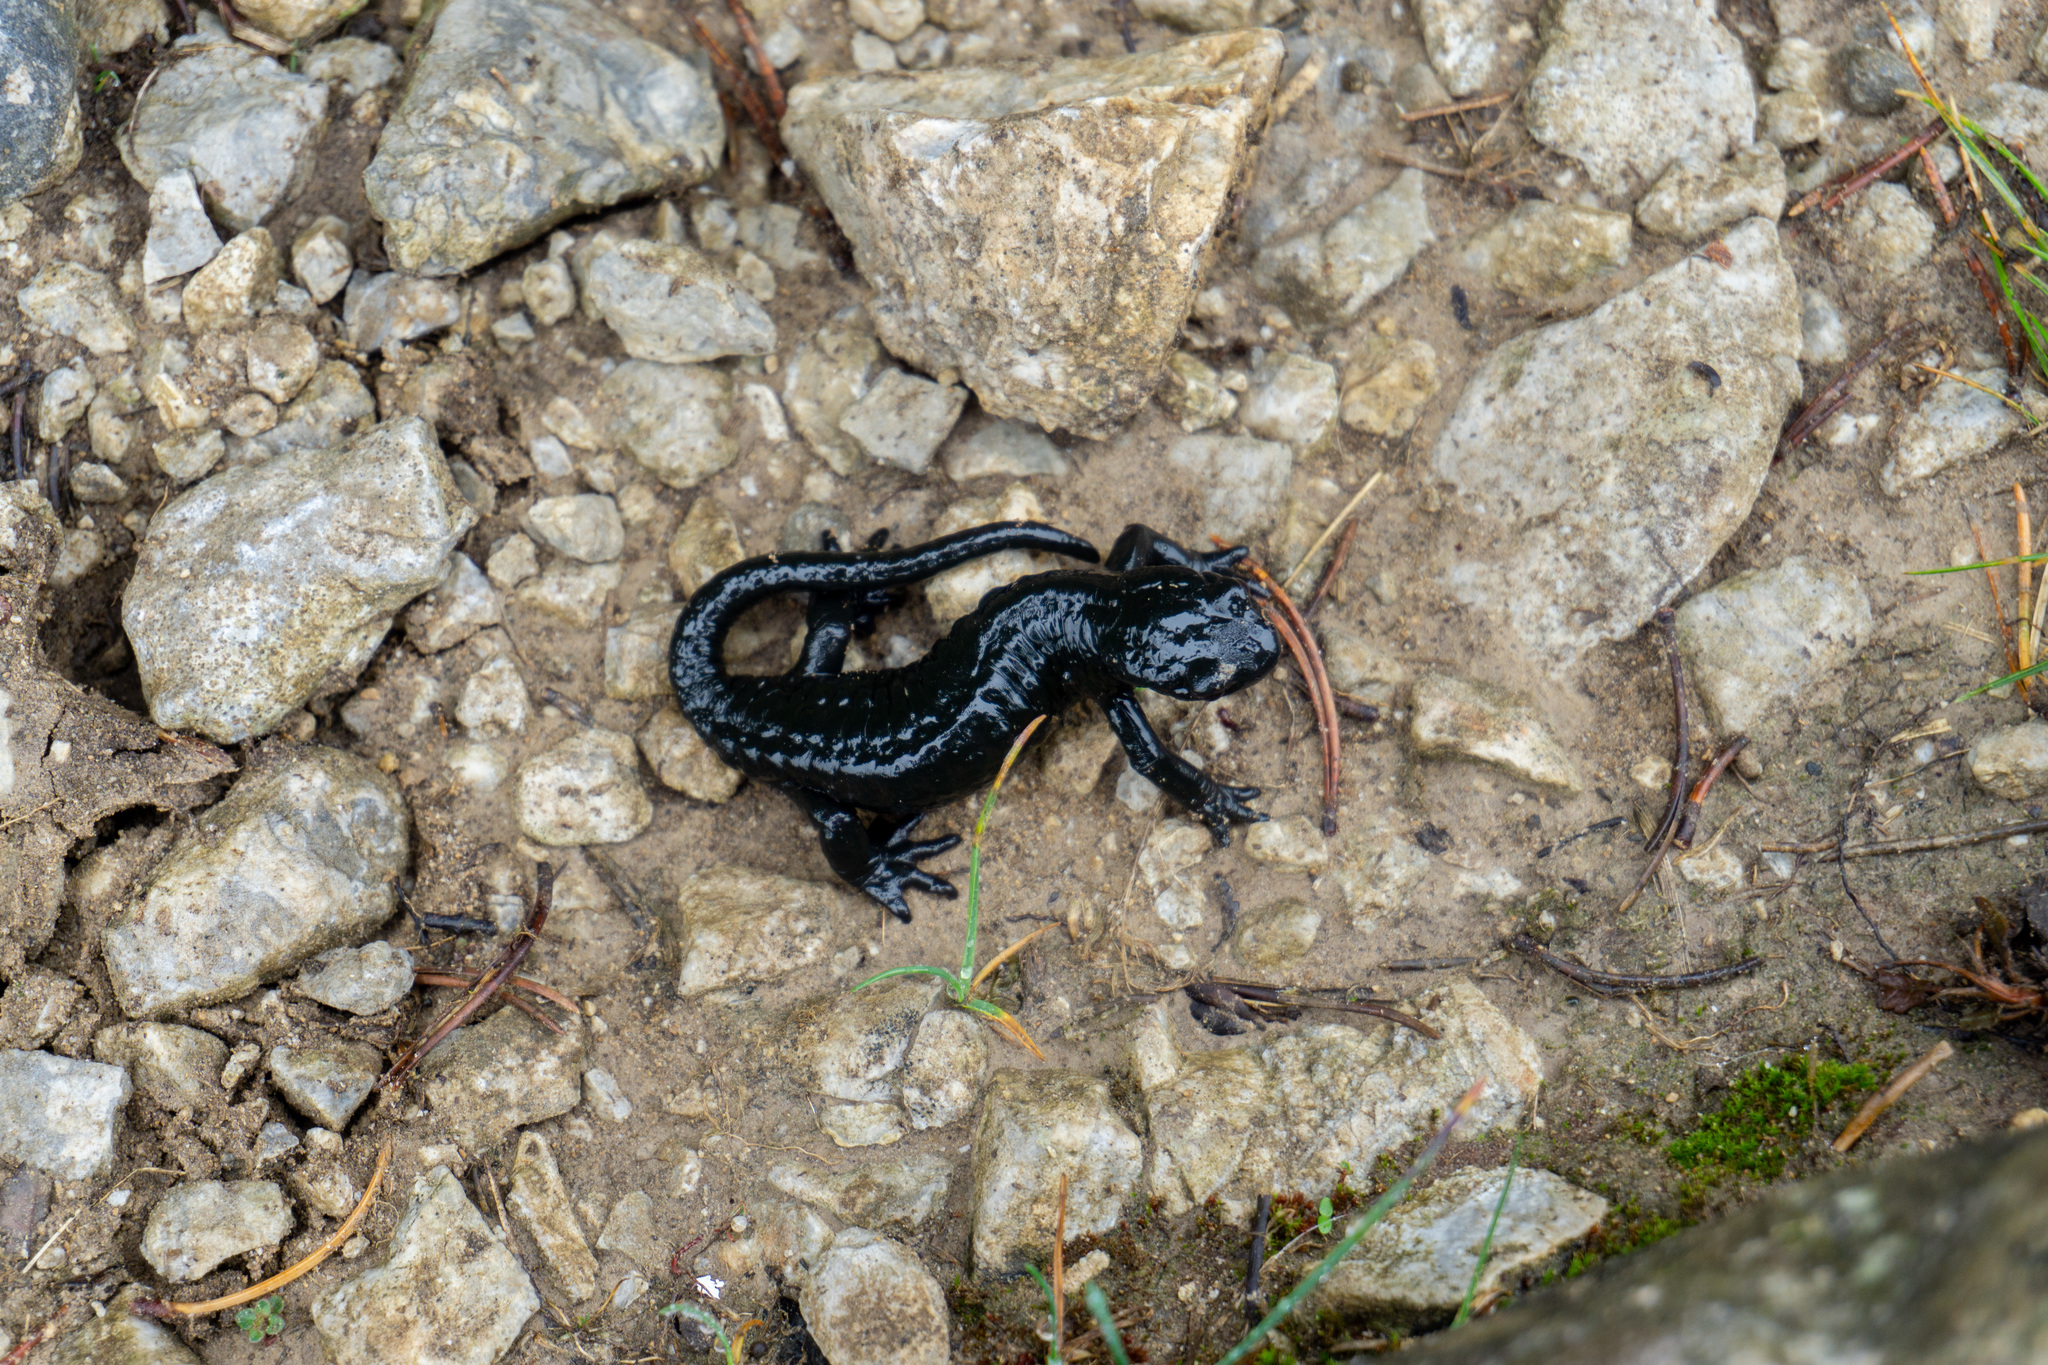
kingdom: Animalia
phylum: Chordata
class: Amphibia
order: Caudata
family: Salamandridae
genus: Salamandra
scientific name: Salamandra atra
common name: Alpine salamander
